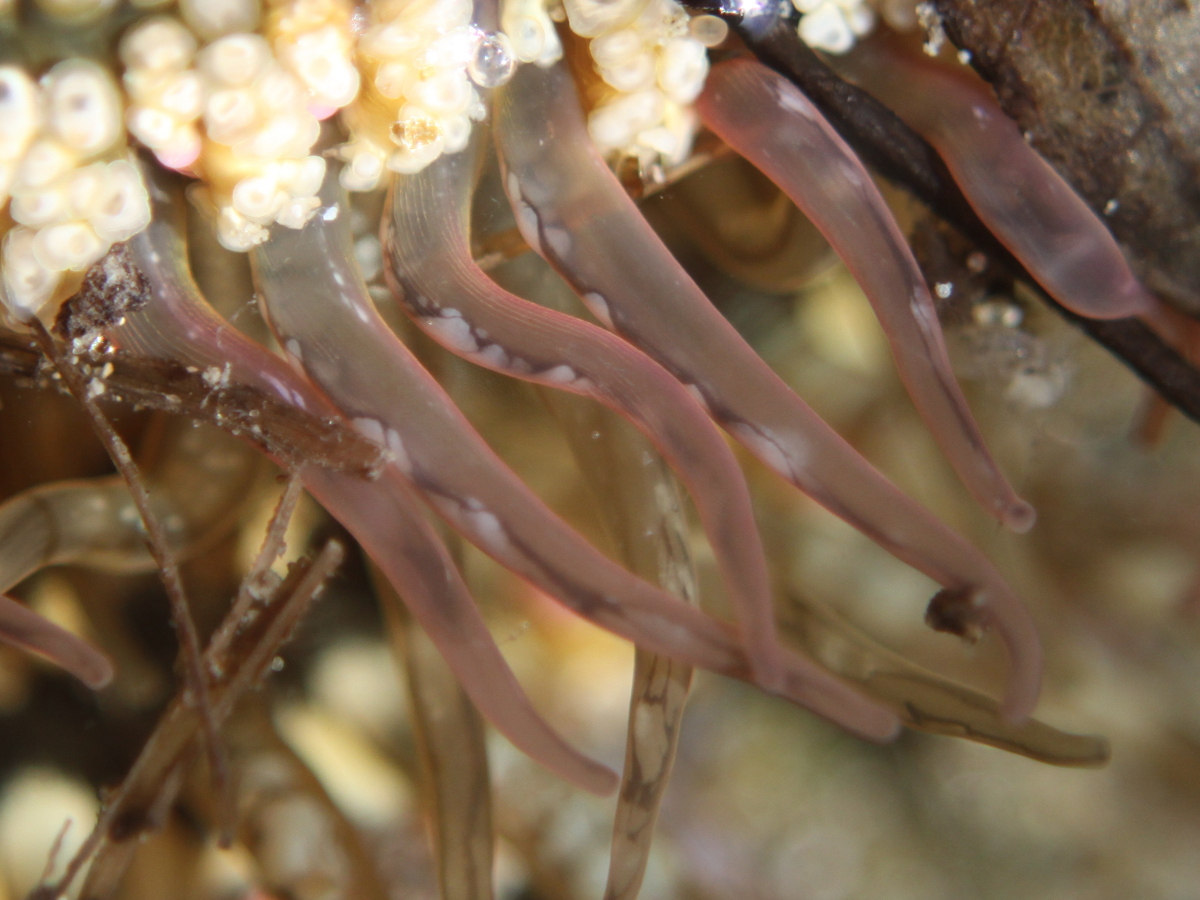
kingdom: Animalia
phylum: Cnidaria
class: Anthozoa
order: Actiniaria
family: Actiniidae
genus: Oulactis
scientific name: Oulactis muscosa
